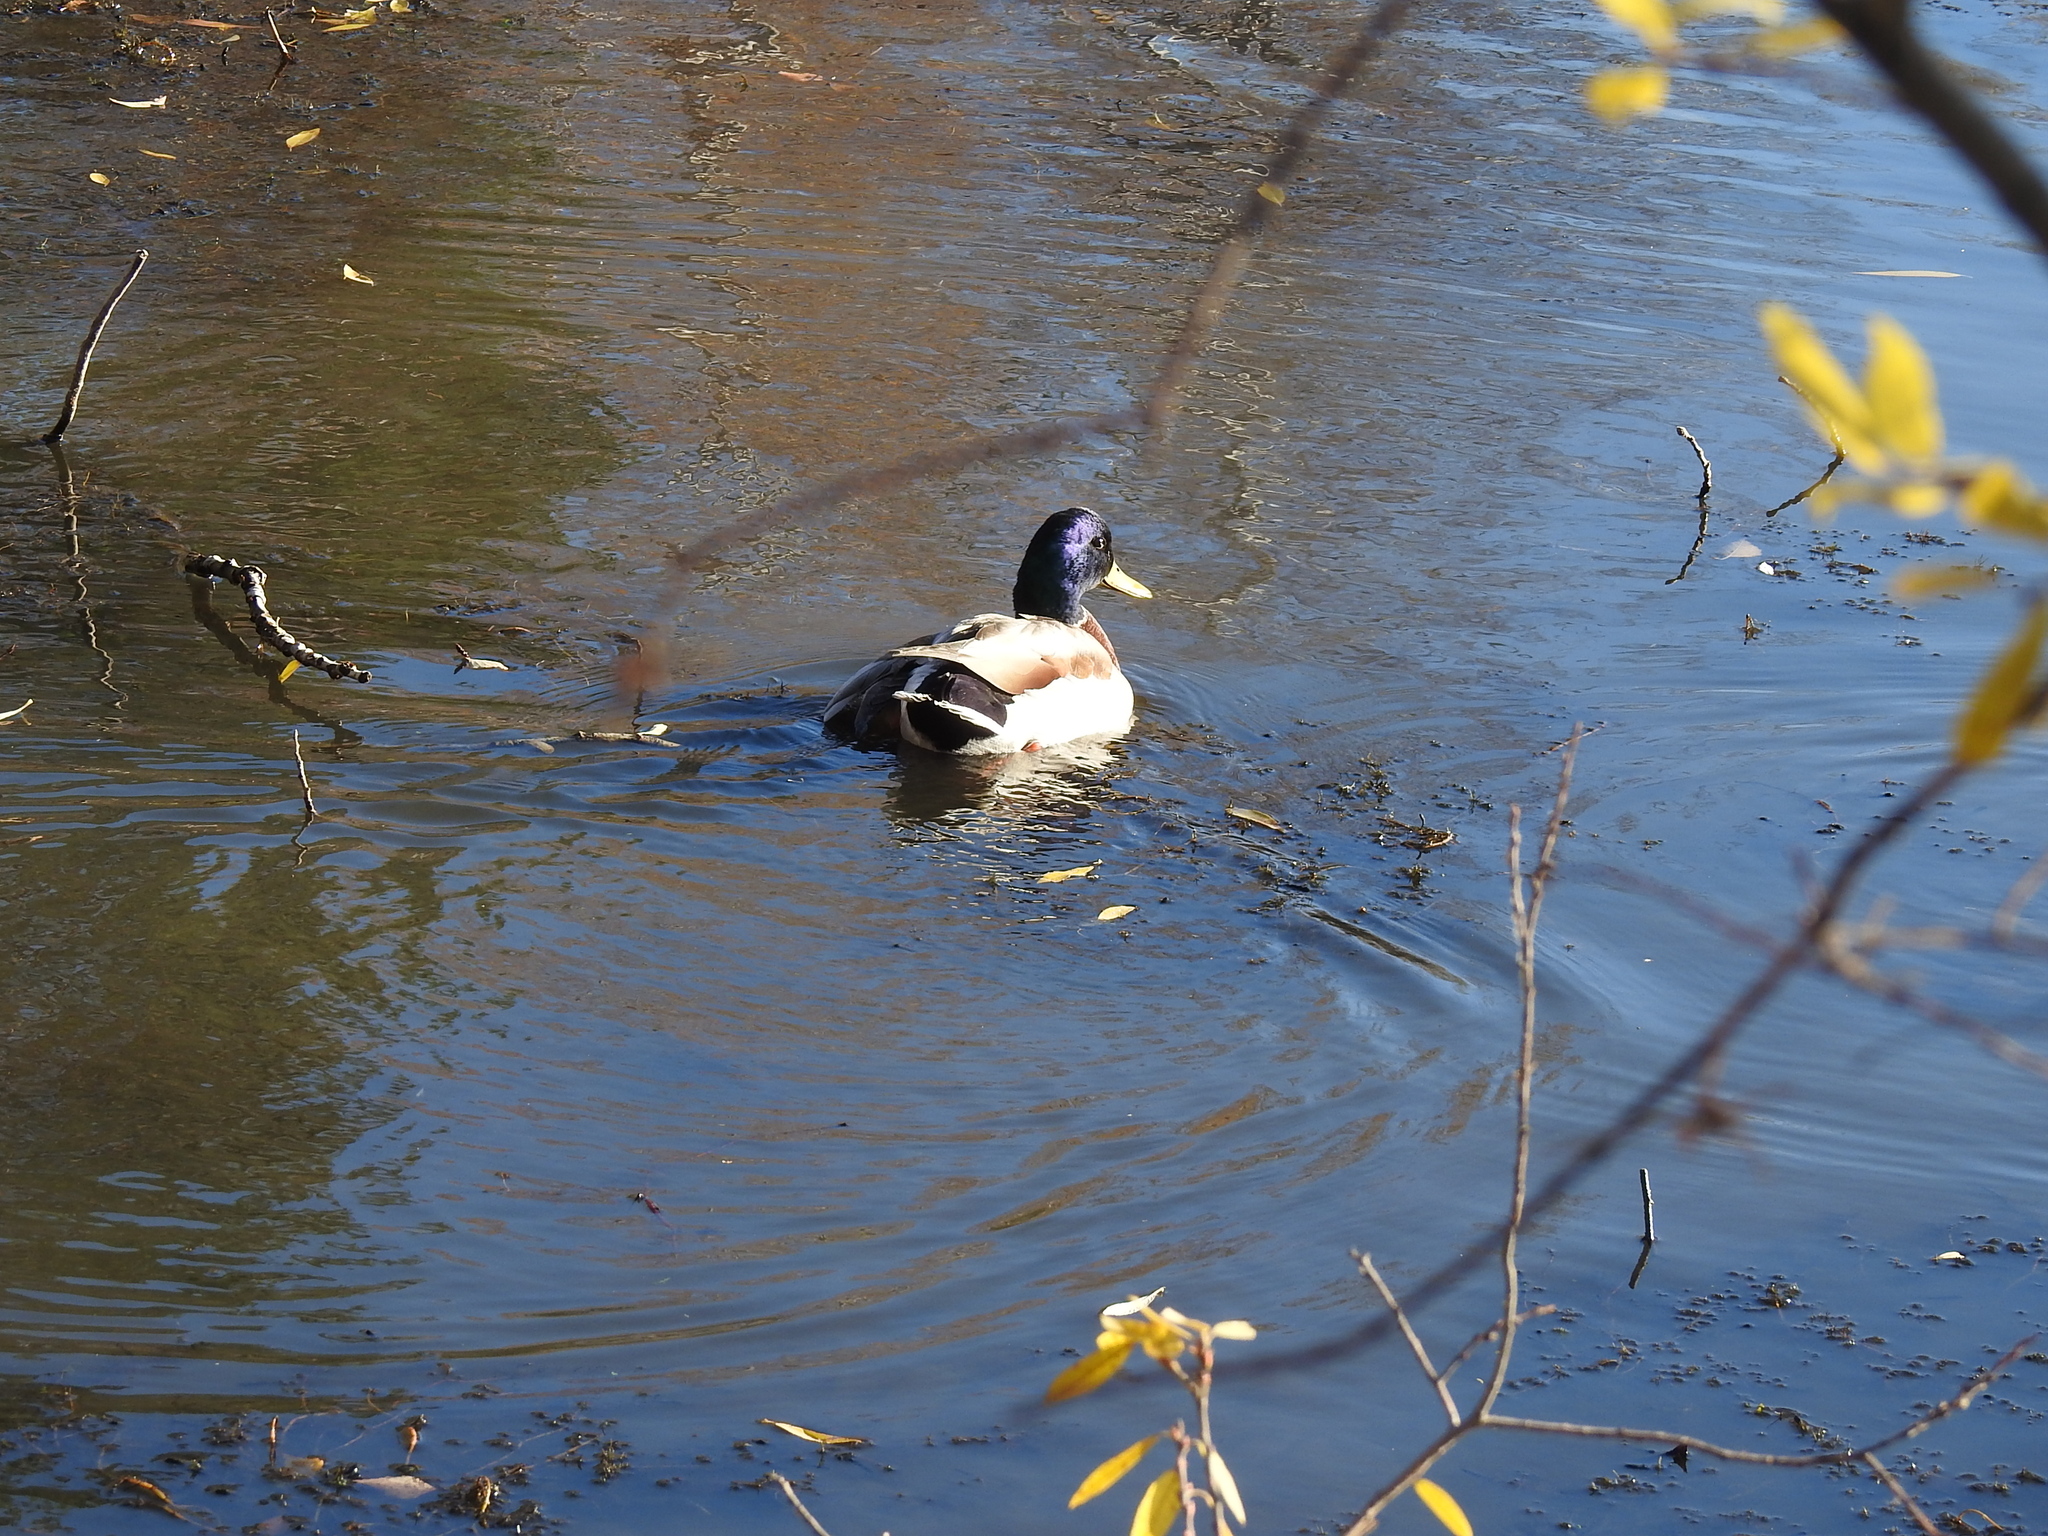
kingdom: Animalia
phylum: Chordata
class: Aves
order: Anseriformes
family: Anatidae
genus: Anas
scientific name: Anas platyrhynchos
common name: Mallard
